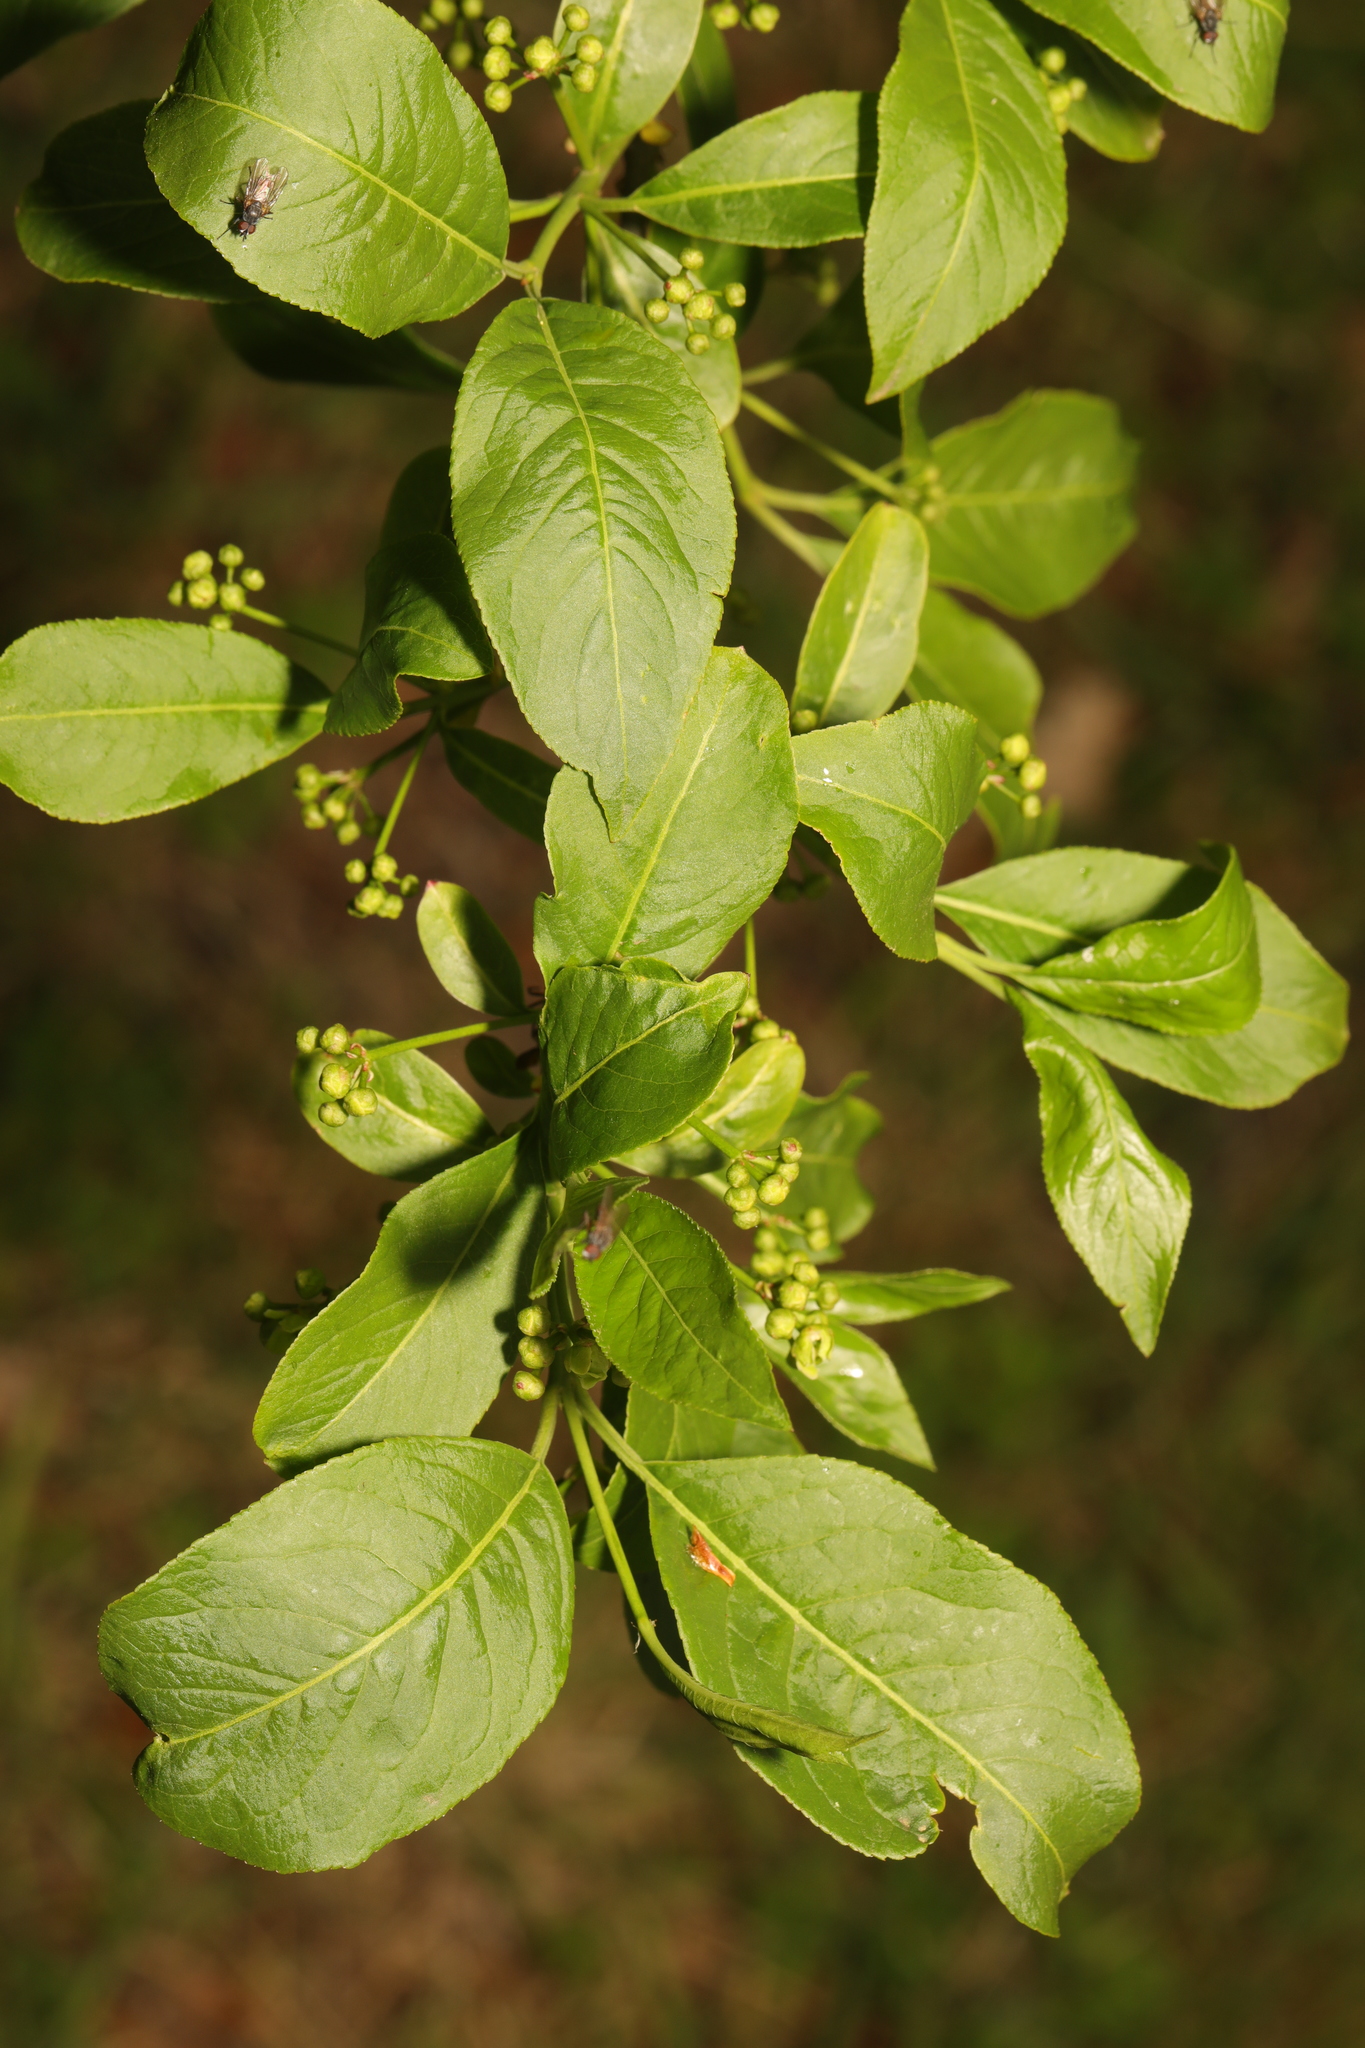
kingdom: Plantae
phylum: Tracheophyta
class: Magnoliopsida
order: Celastrales
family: Celastraceae
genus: Euonymus
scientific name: Euonymus europaeus
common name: Spindle
